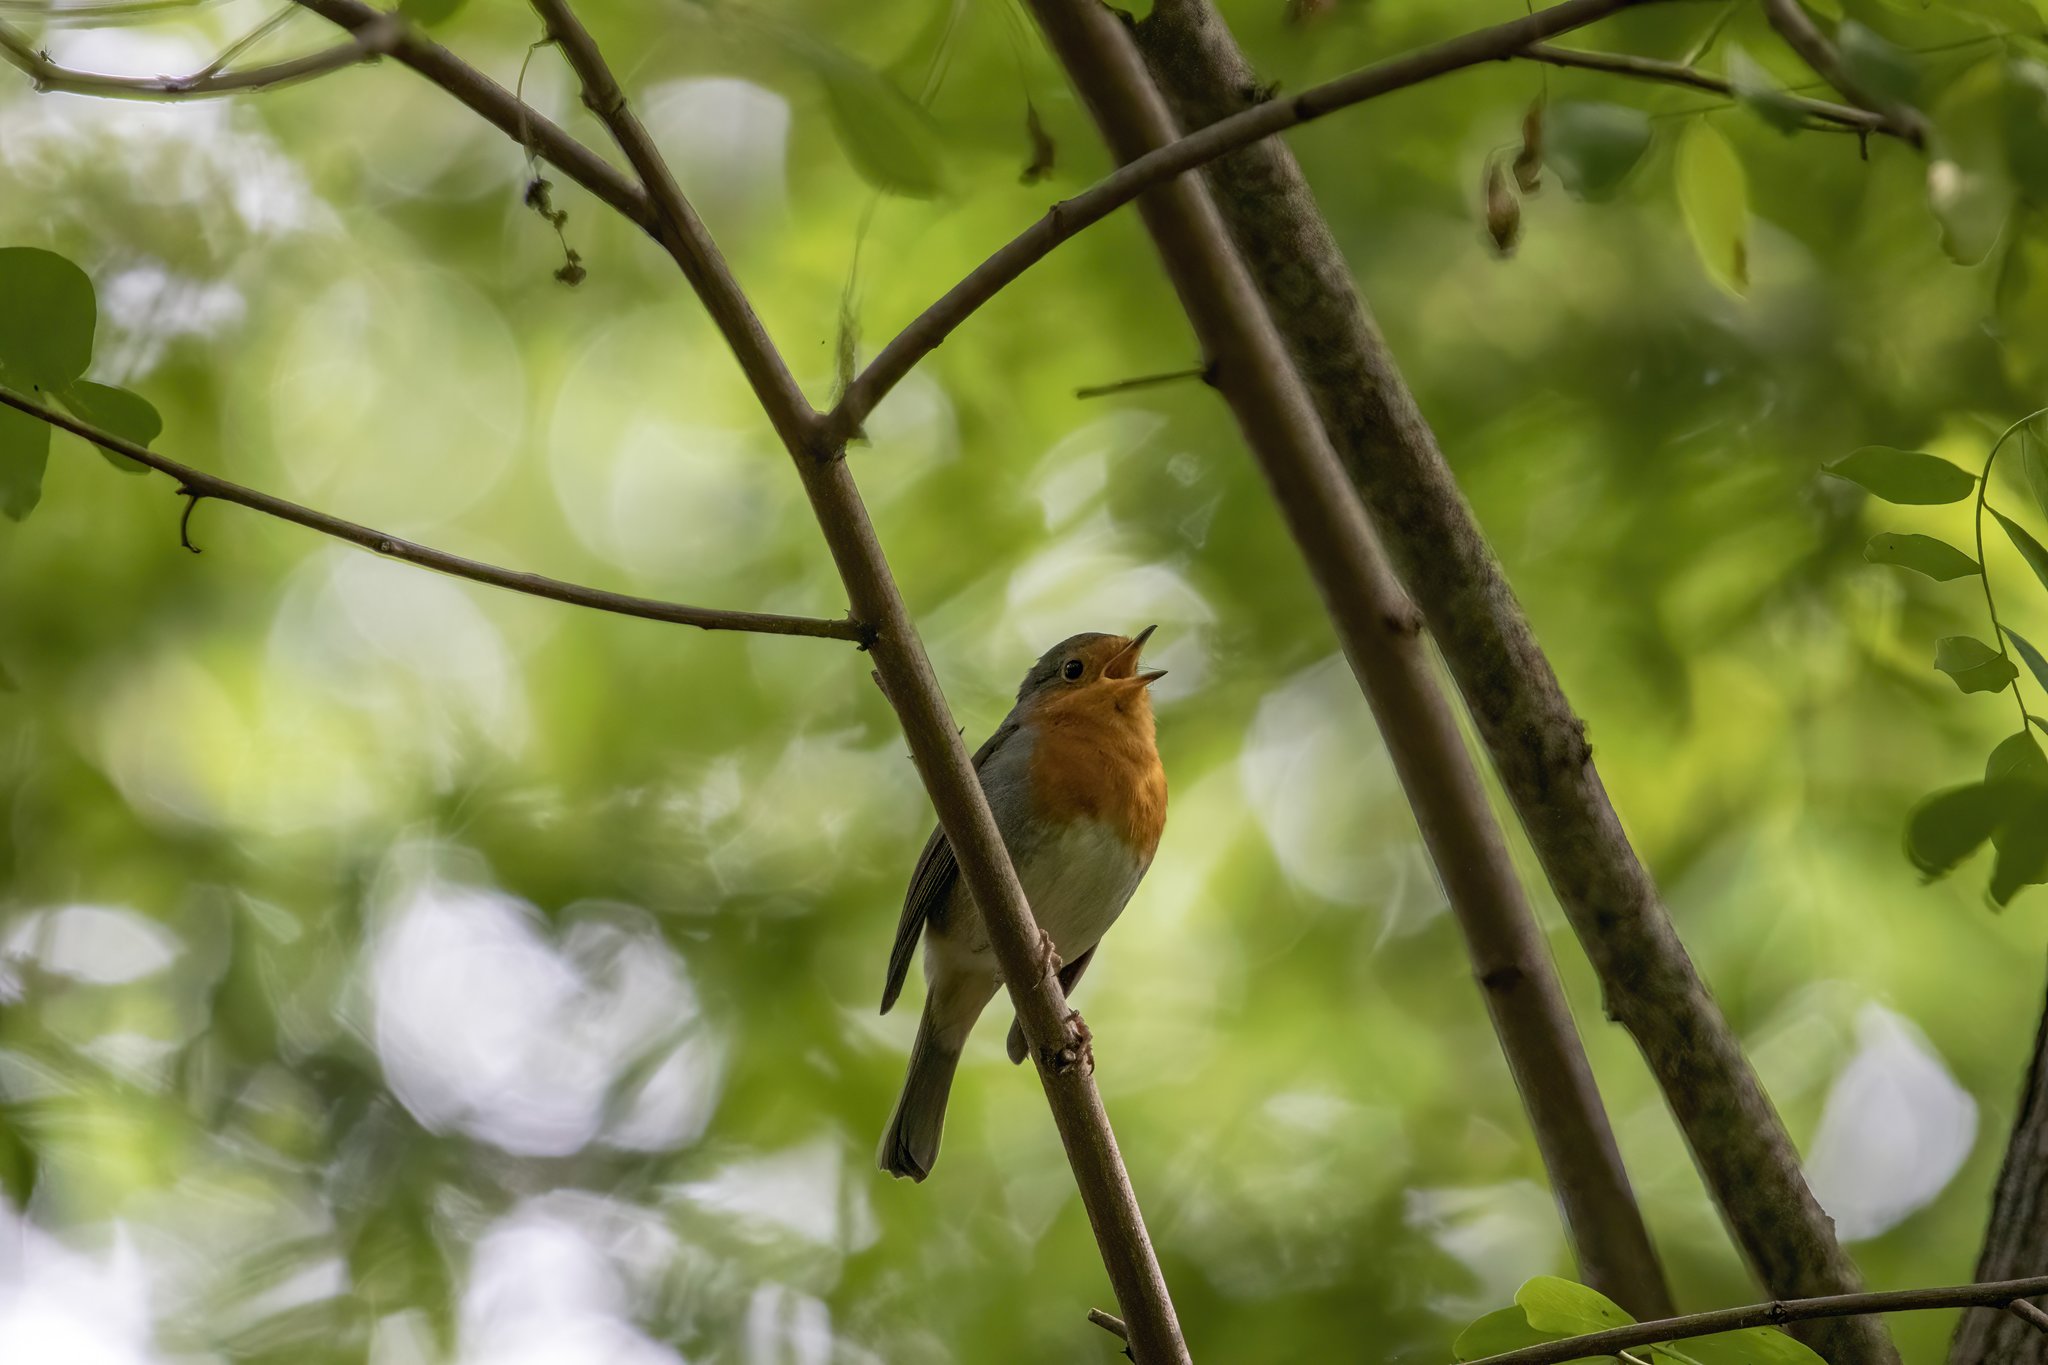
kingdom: Animalia
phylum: Chordata
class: Aves
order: Passeriformes
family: Muscicapidae
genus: Erithacus
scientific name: Erithacus rubecula
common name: European robin
